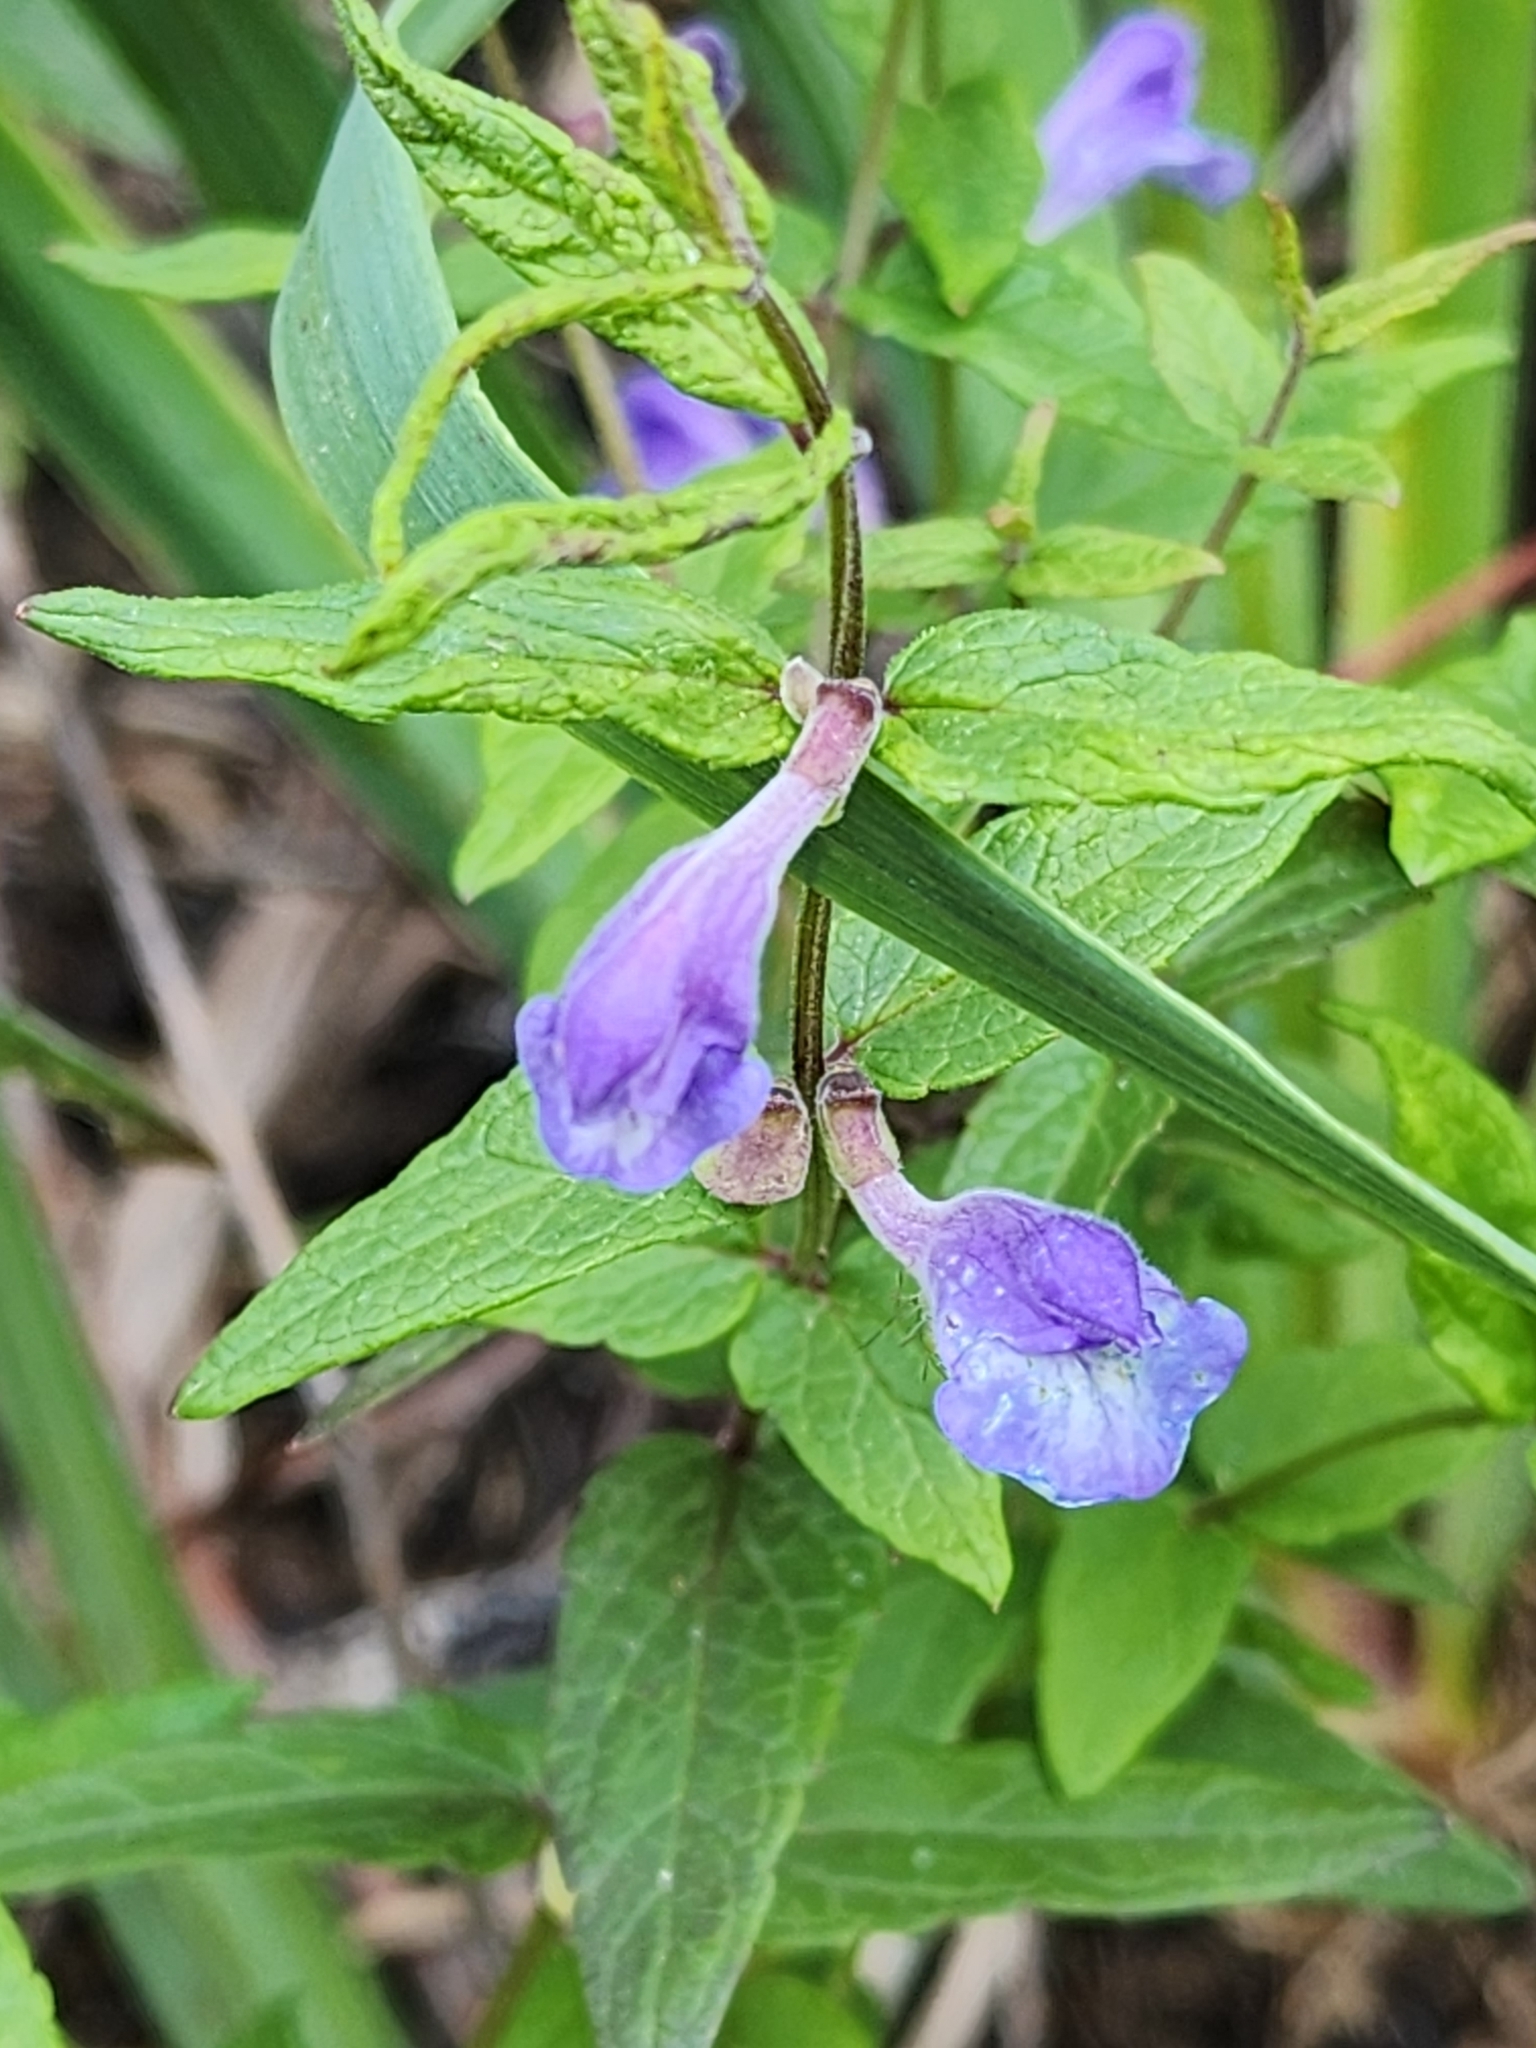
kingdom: Plantae
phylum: Tracheophyta
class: Magnoliopsida
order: Lamiales
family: Lamiaceae
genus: Scutellaria
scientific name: Scutellaria galericulata
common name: Skullcap
